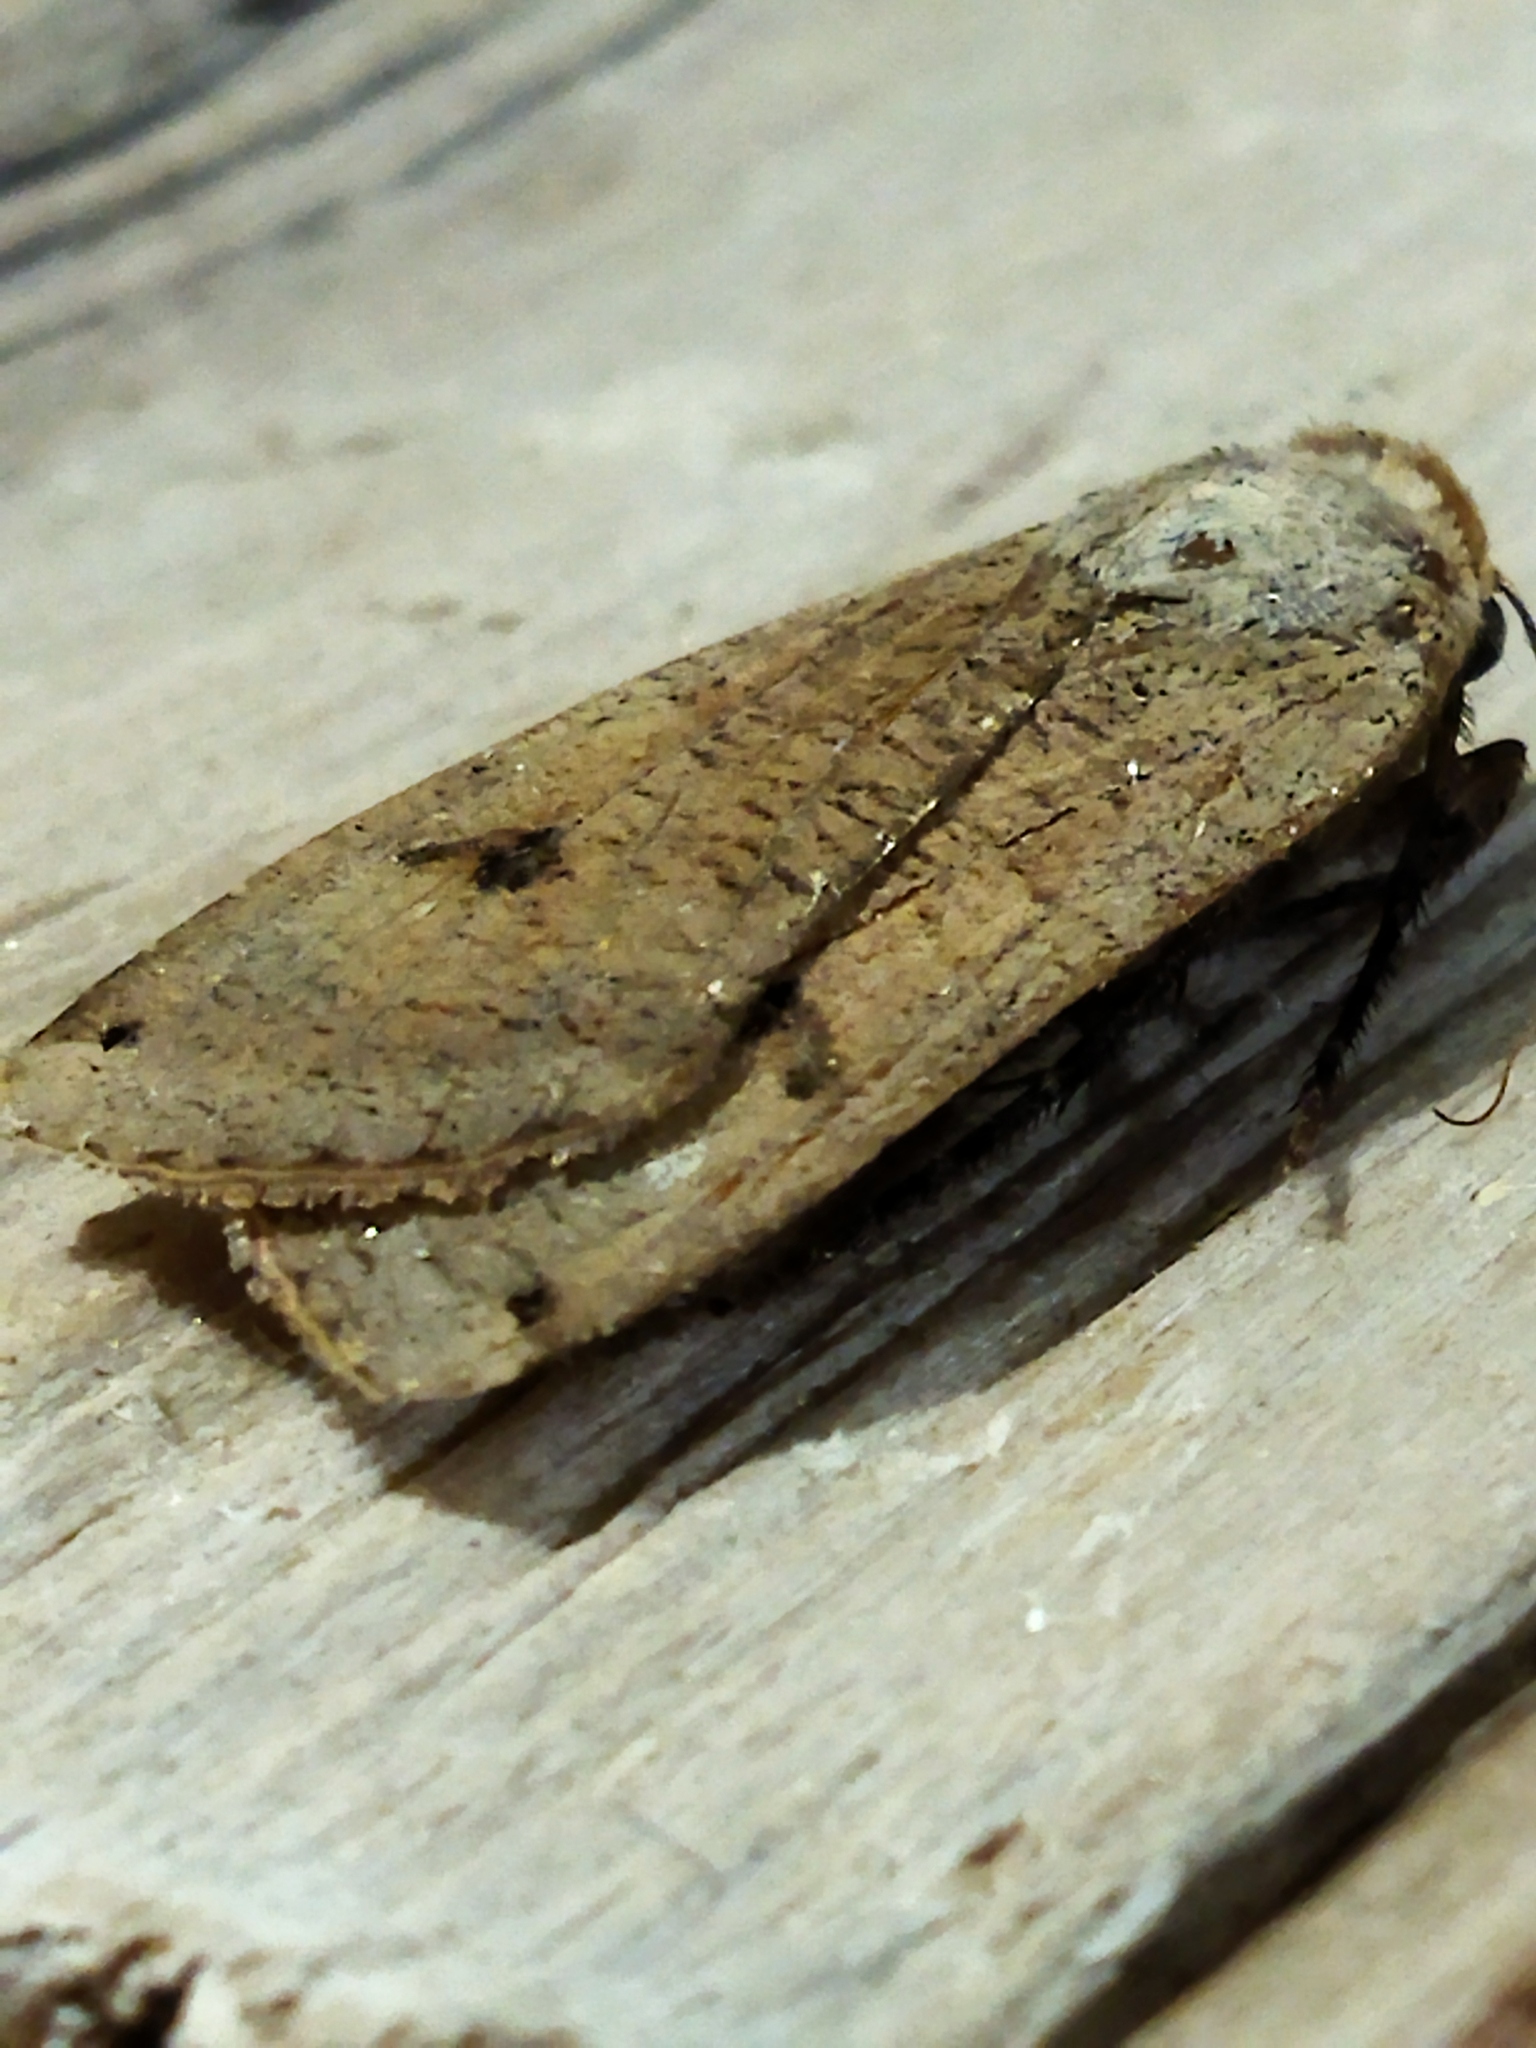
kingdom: Animalia
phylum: Arthropoda
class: Insecta
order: Lepidoptera
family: Noctuidae
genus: Noctua
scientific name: Noctua pronuba
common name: Large yellow underwing
